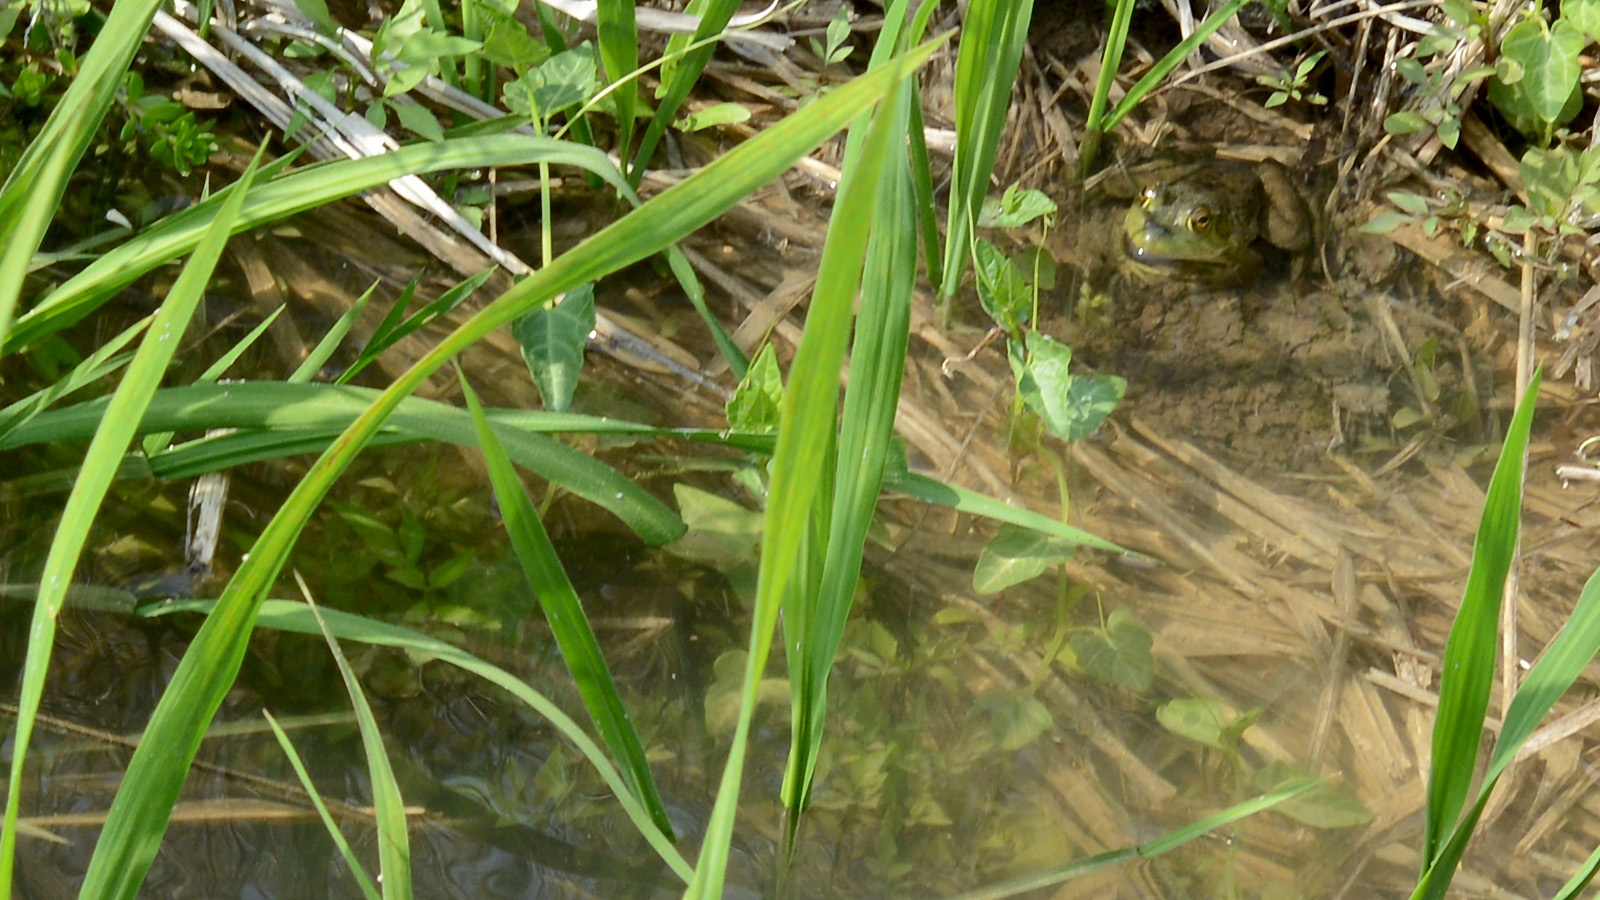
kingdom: Animalia
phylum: Chordata
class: Amphibia
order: Anura
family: Ranidae
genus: Lithobates
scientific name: Lithobates catesbeianus
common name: American bullfrog
